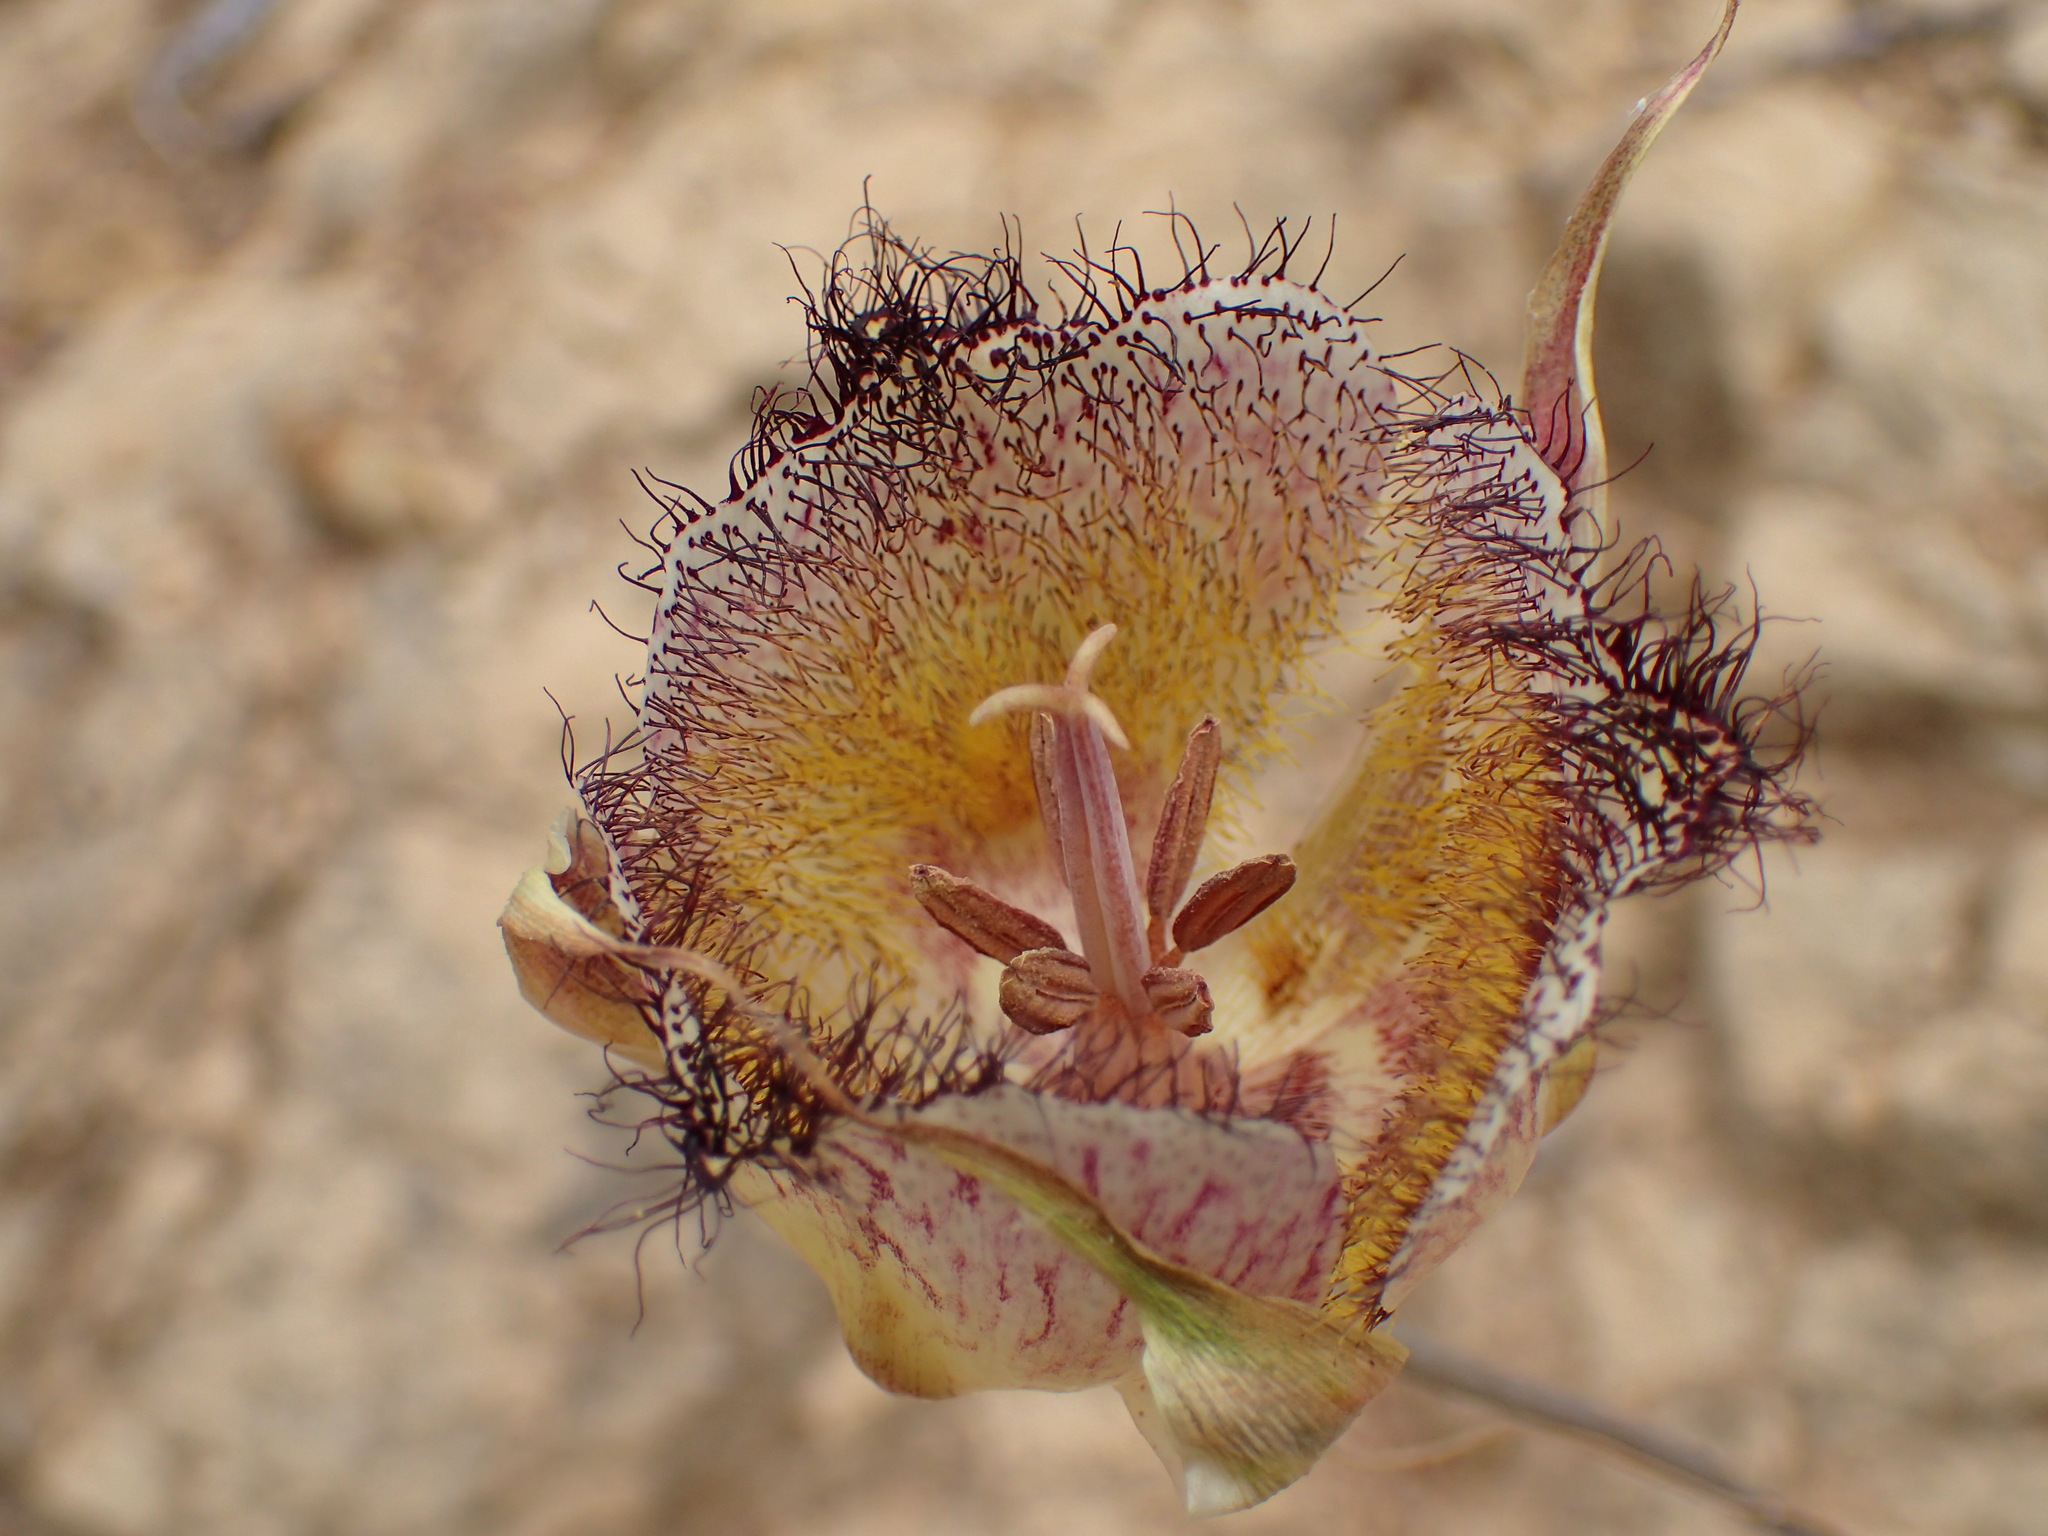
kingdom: Plantae
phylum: Tracheophyta
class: Liliopsida
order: Liliales
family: Liliaceae
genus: Calochortus
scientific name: Calochortus fimbriatus
